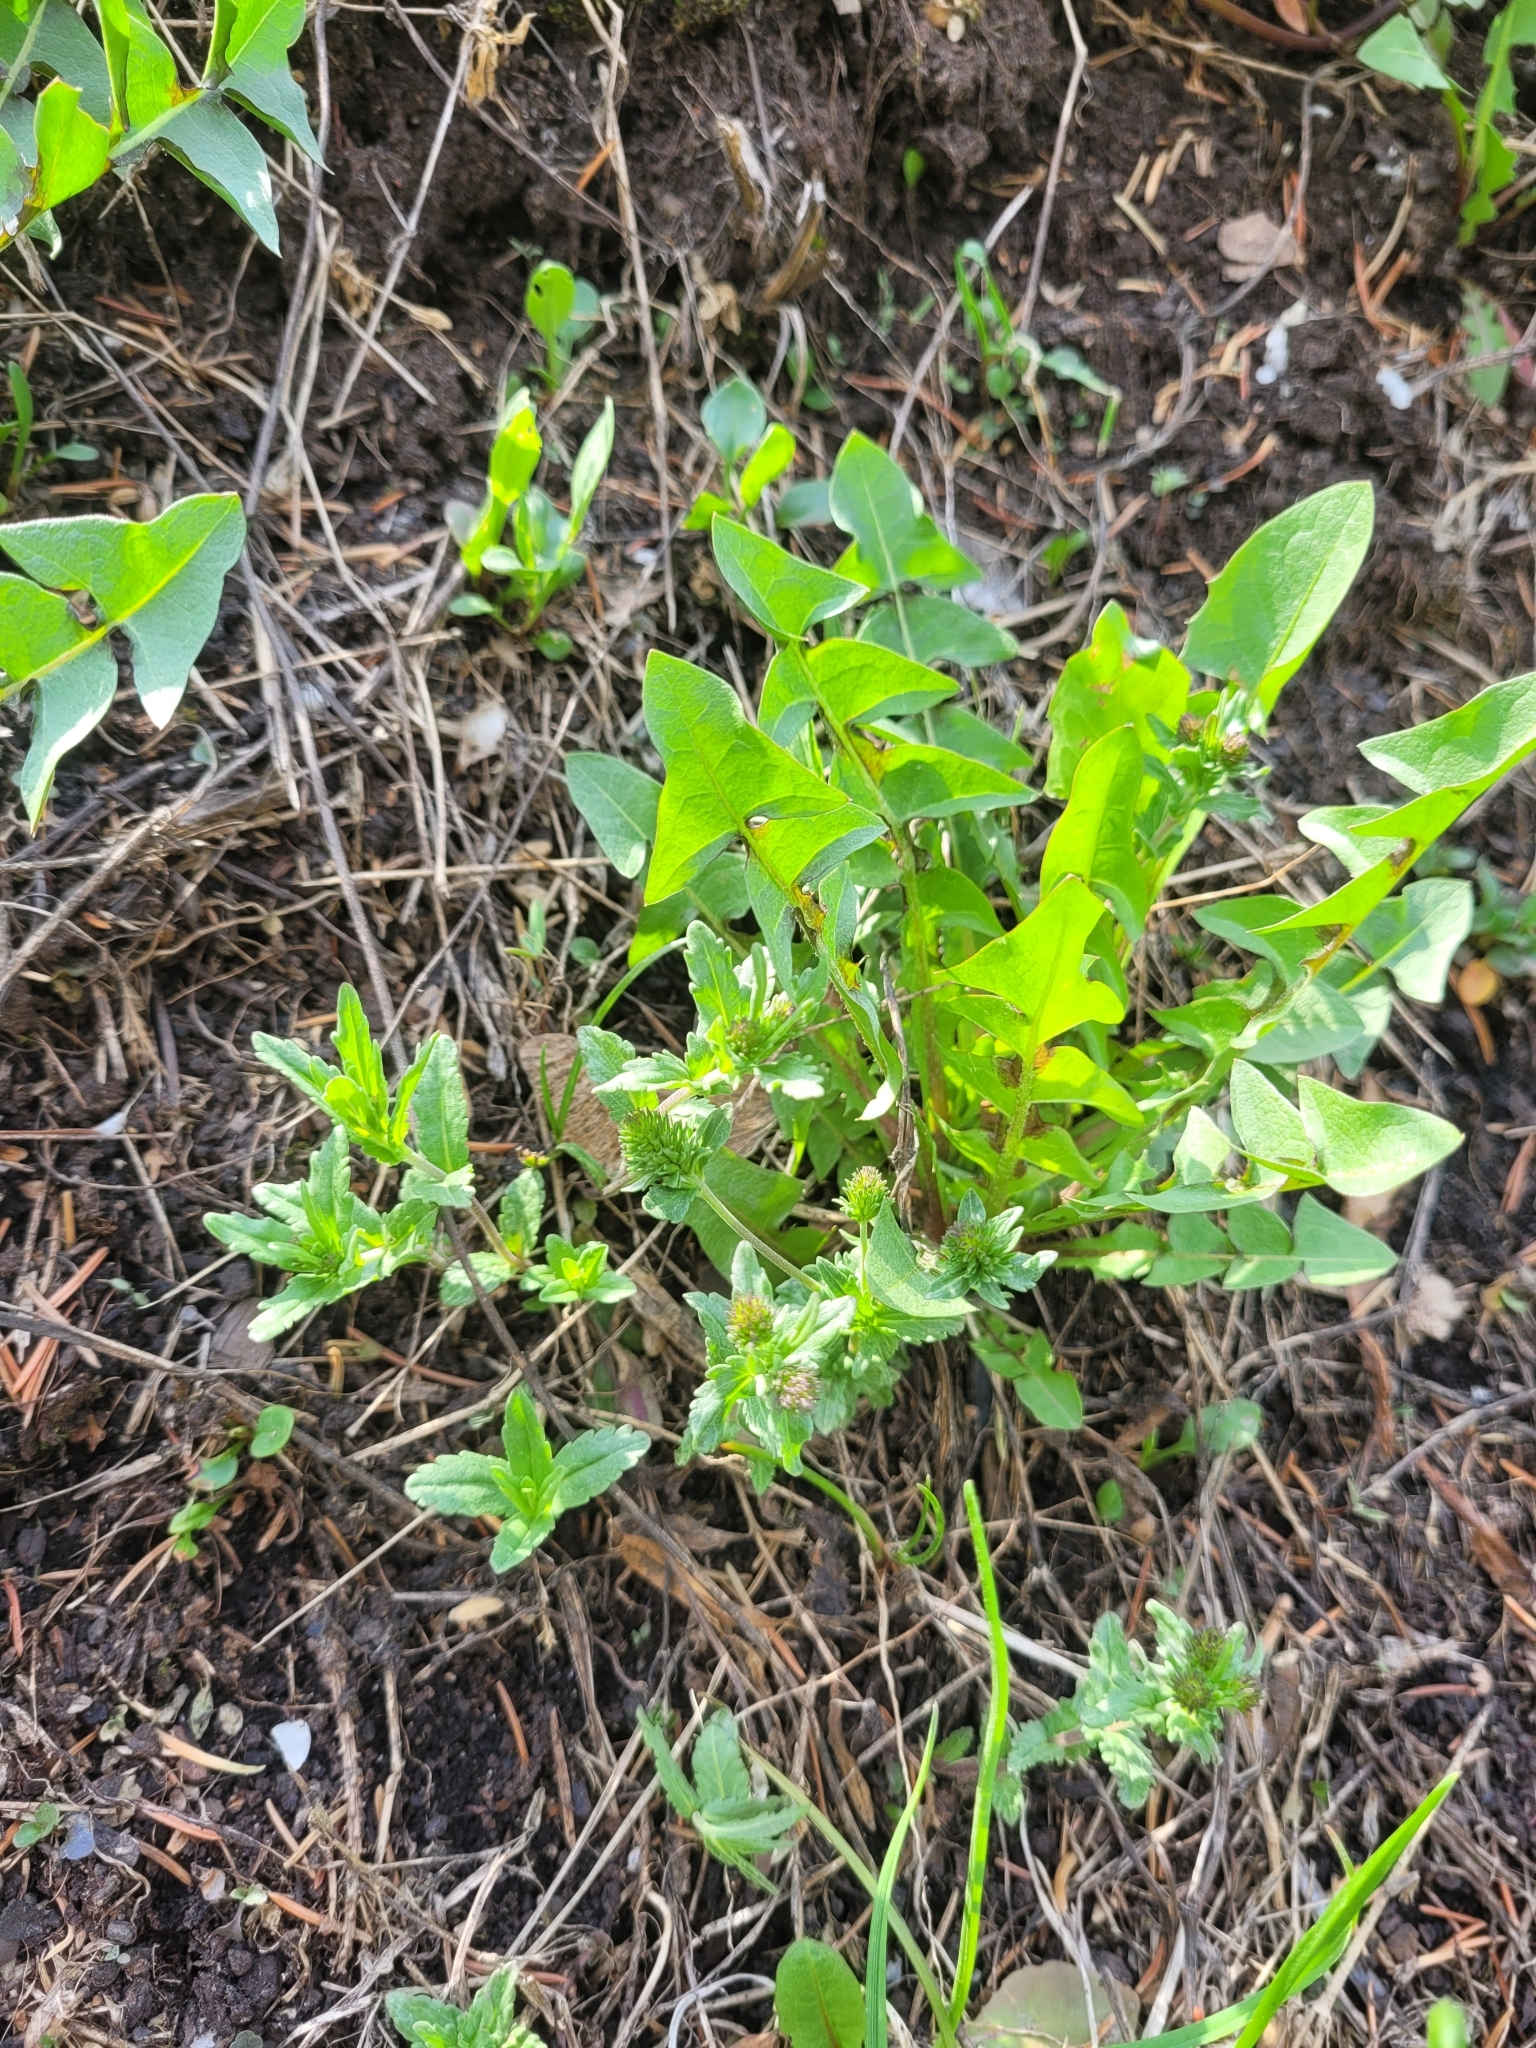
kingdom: Plantae
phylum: Tracheophyta
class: Magnoliopsida
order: Lamiales
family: Plantaginaceae
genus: Veronica
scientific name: Veronica prostrata
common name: Prostrate speedwell
